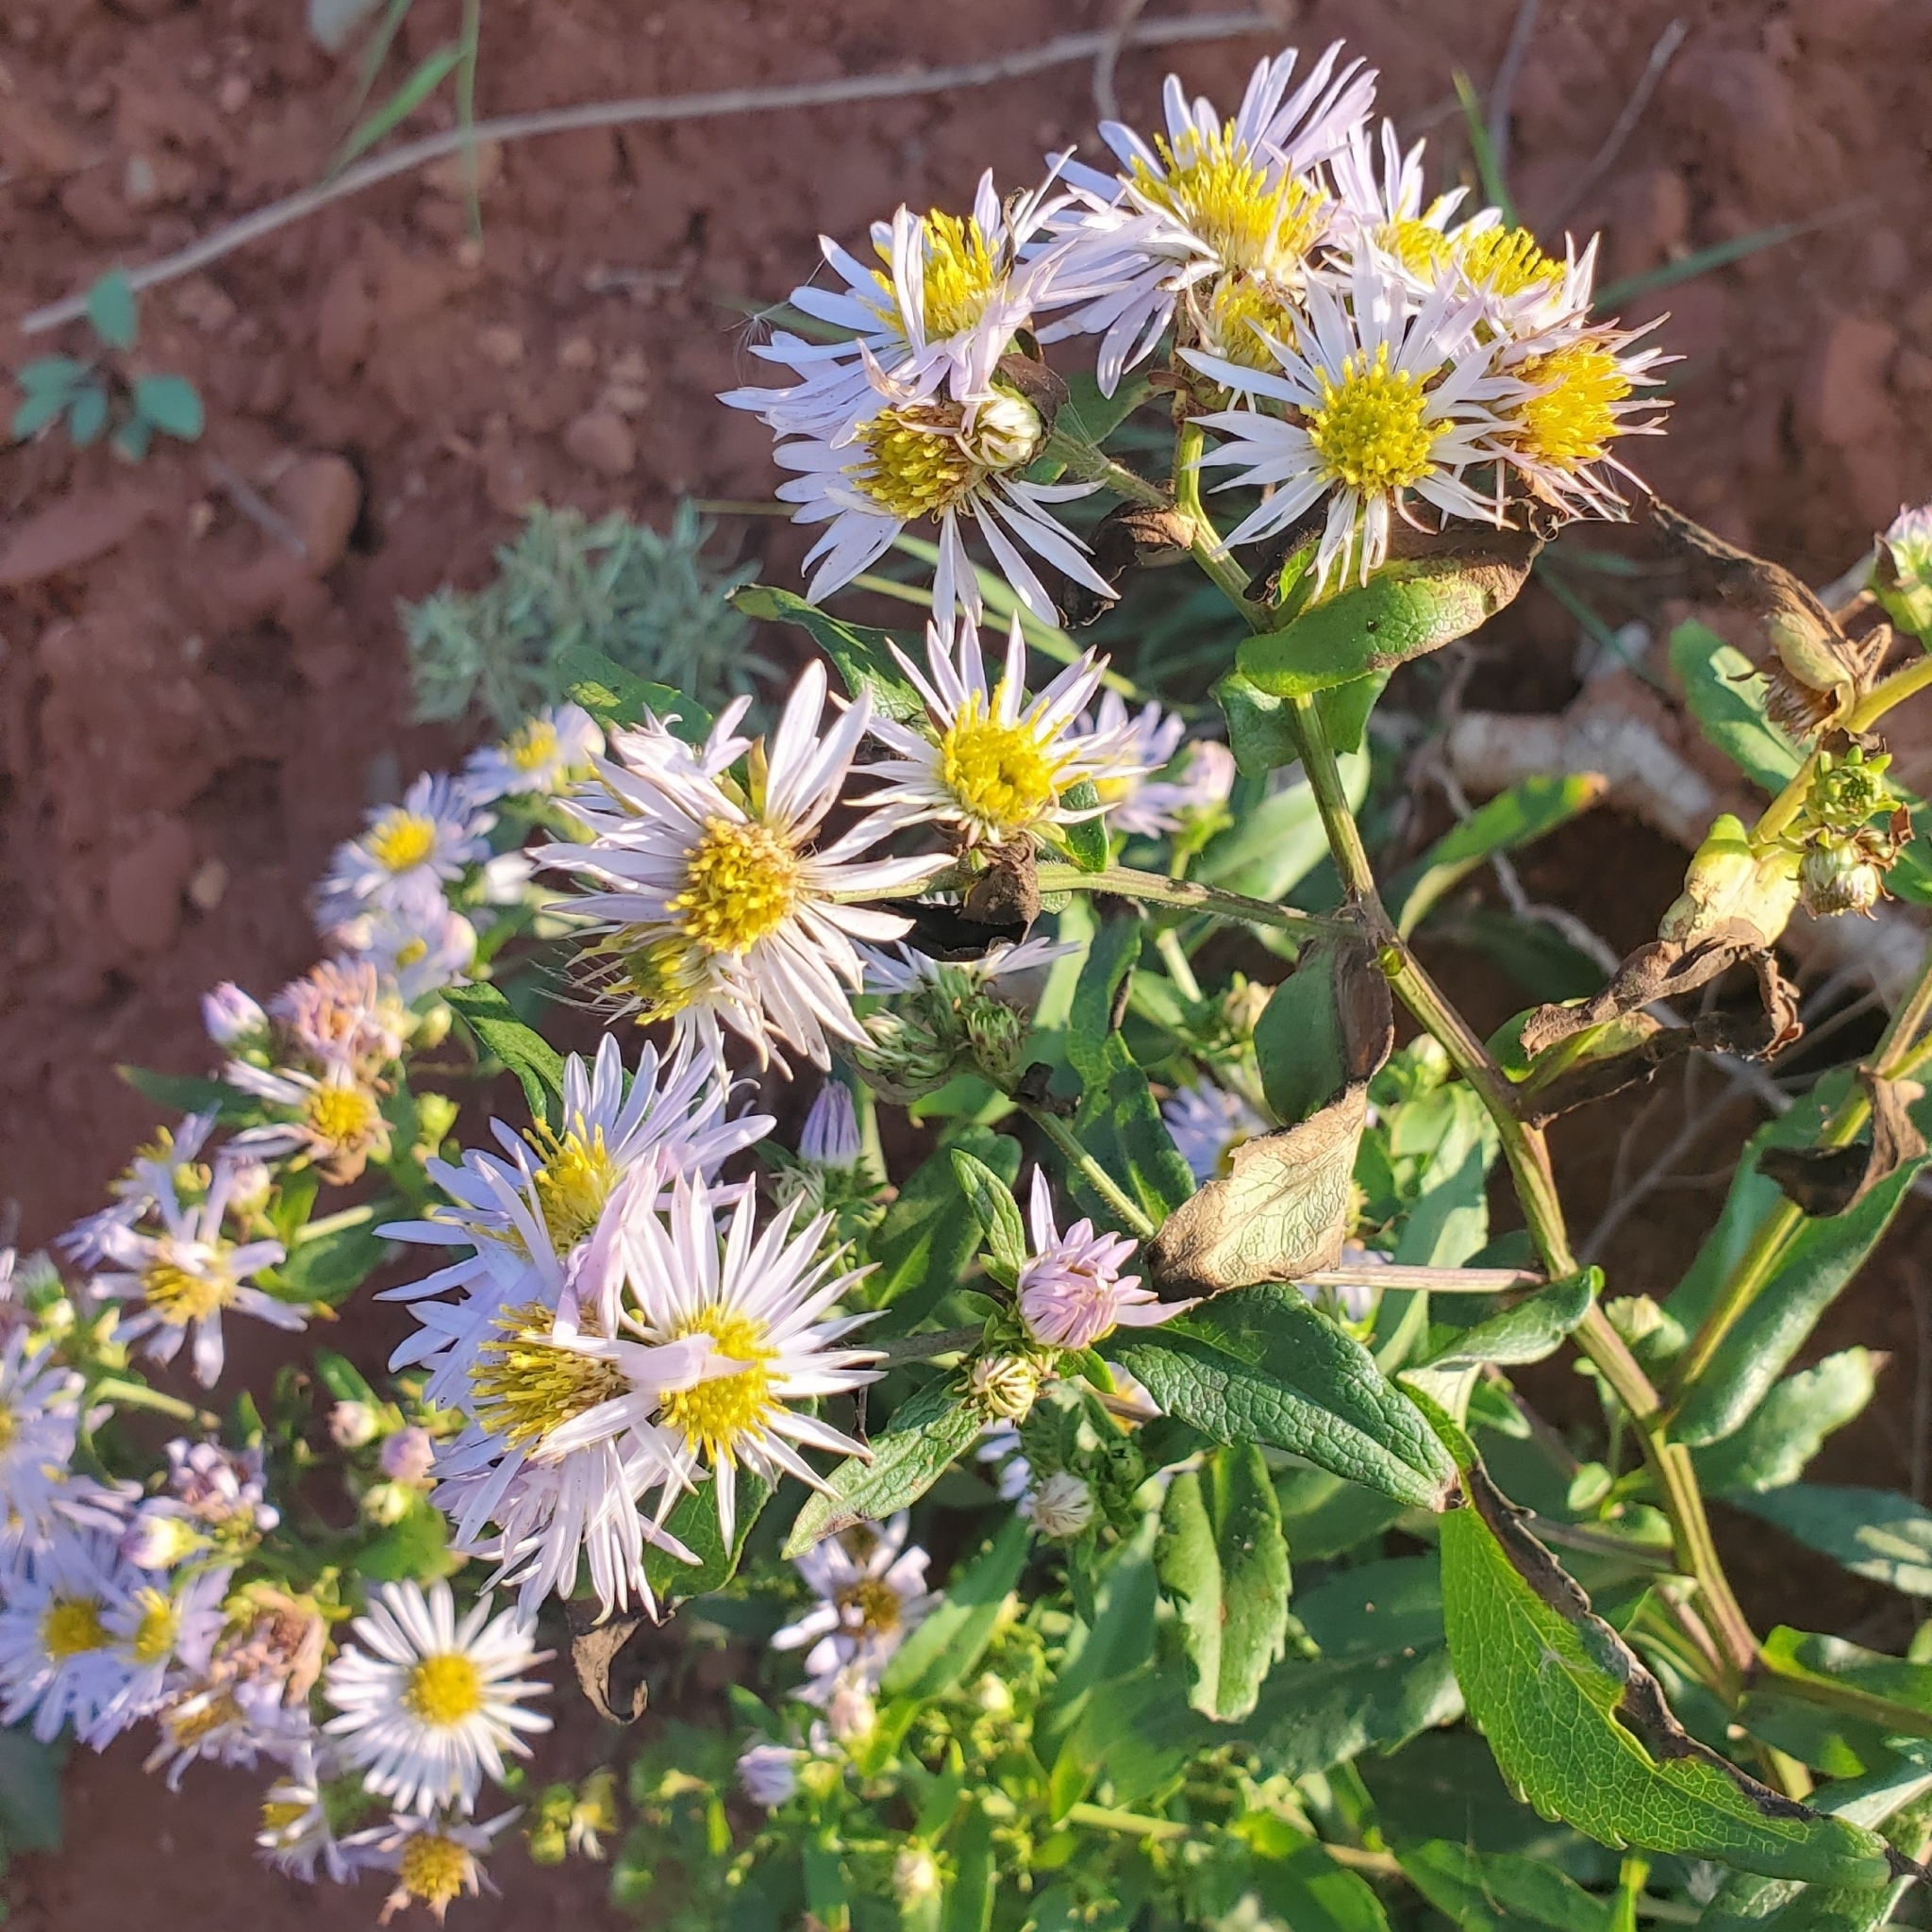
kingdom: Plantae
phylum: Tracheophyta
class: Magnoliopsida
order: Asterales
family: Asteraceae
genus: Symphyotrichum
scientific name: Symphyotrichum novi-belgii
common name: Michaelmas daisy
